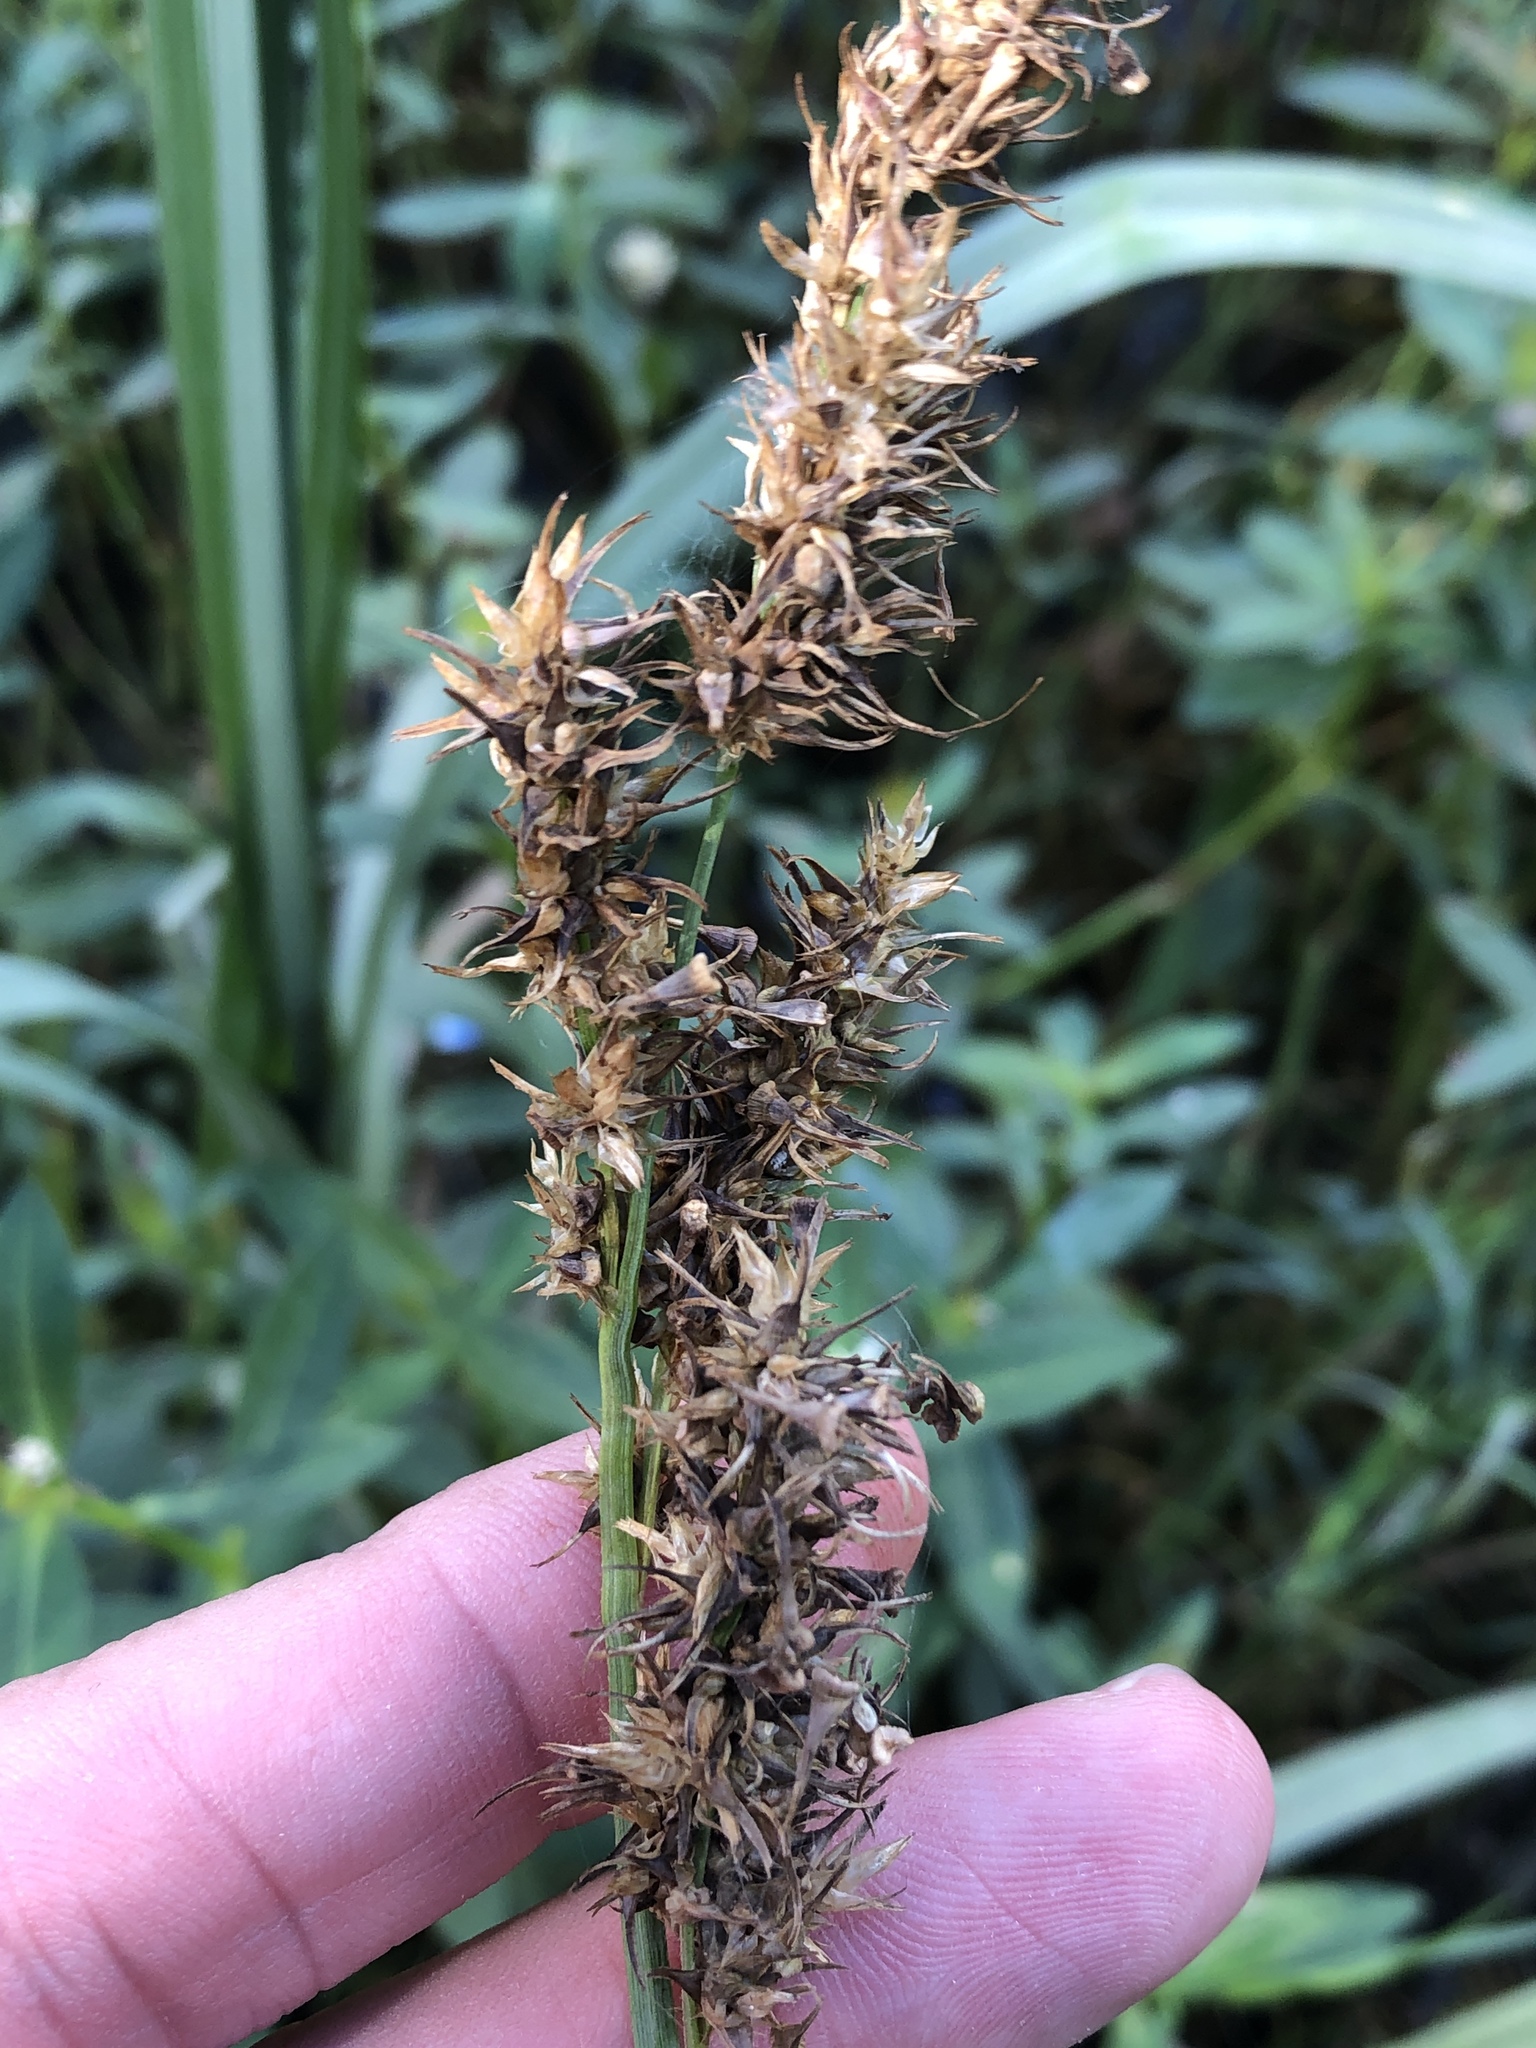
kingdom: Plantae
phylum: Tracheophyta
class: Liliopsida
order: Poales
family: Cyperaceae
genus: Carex
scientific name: Carex crus-corvi
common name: Crow-spur sedge
